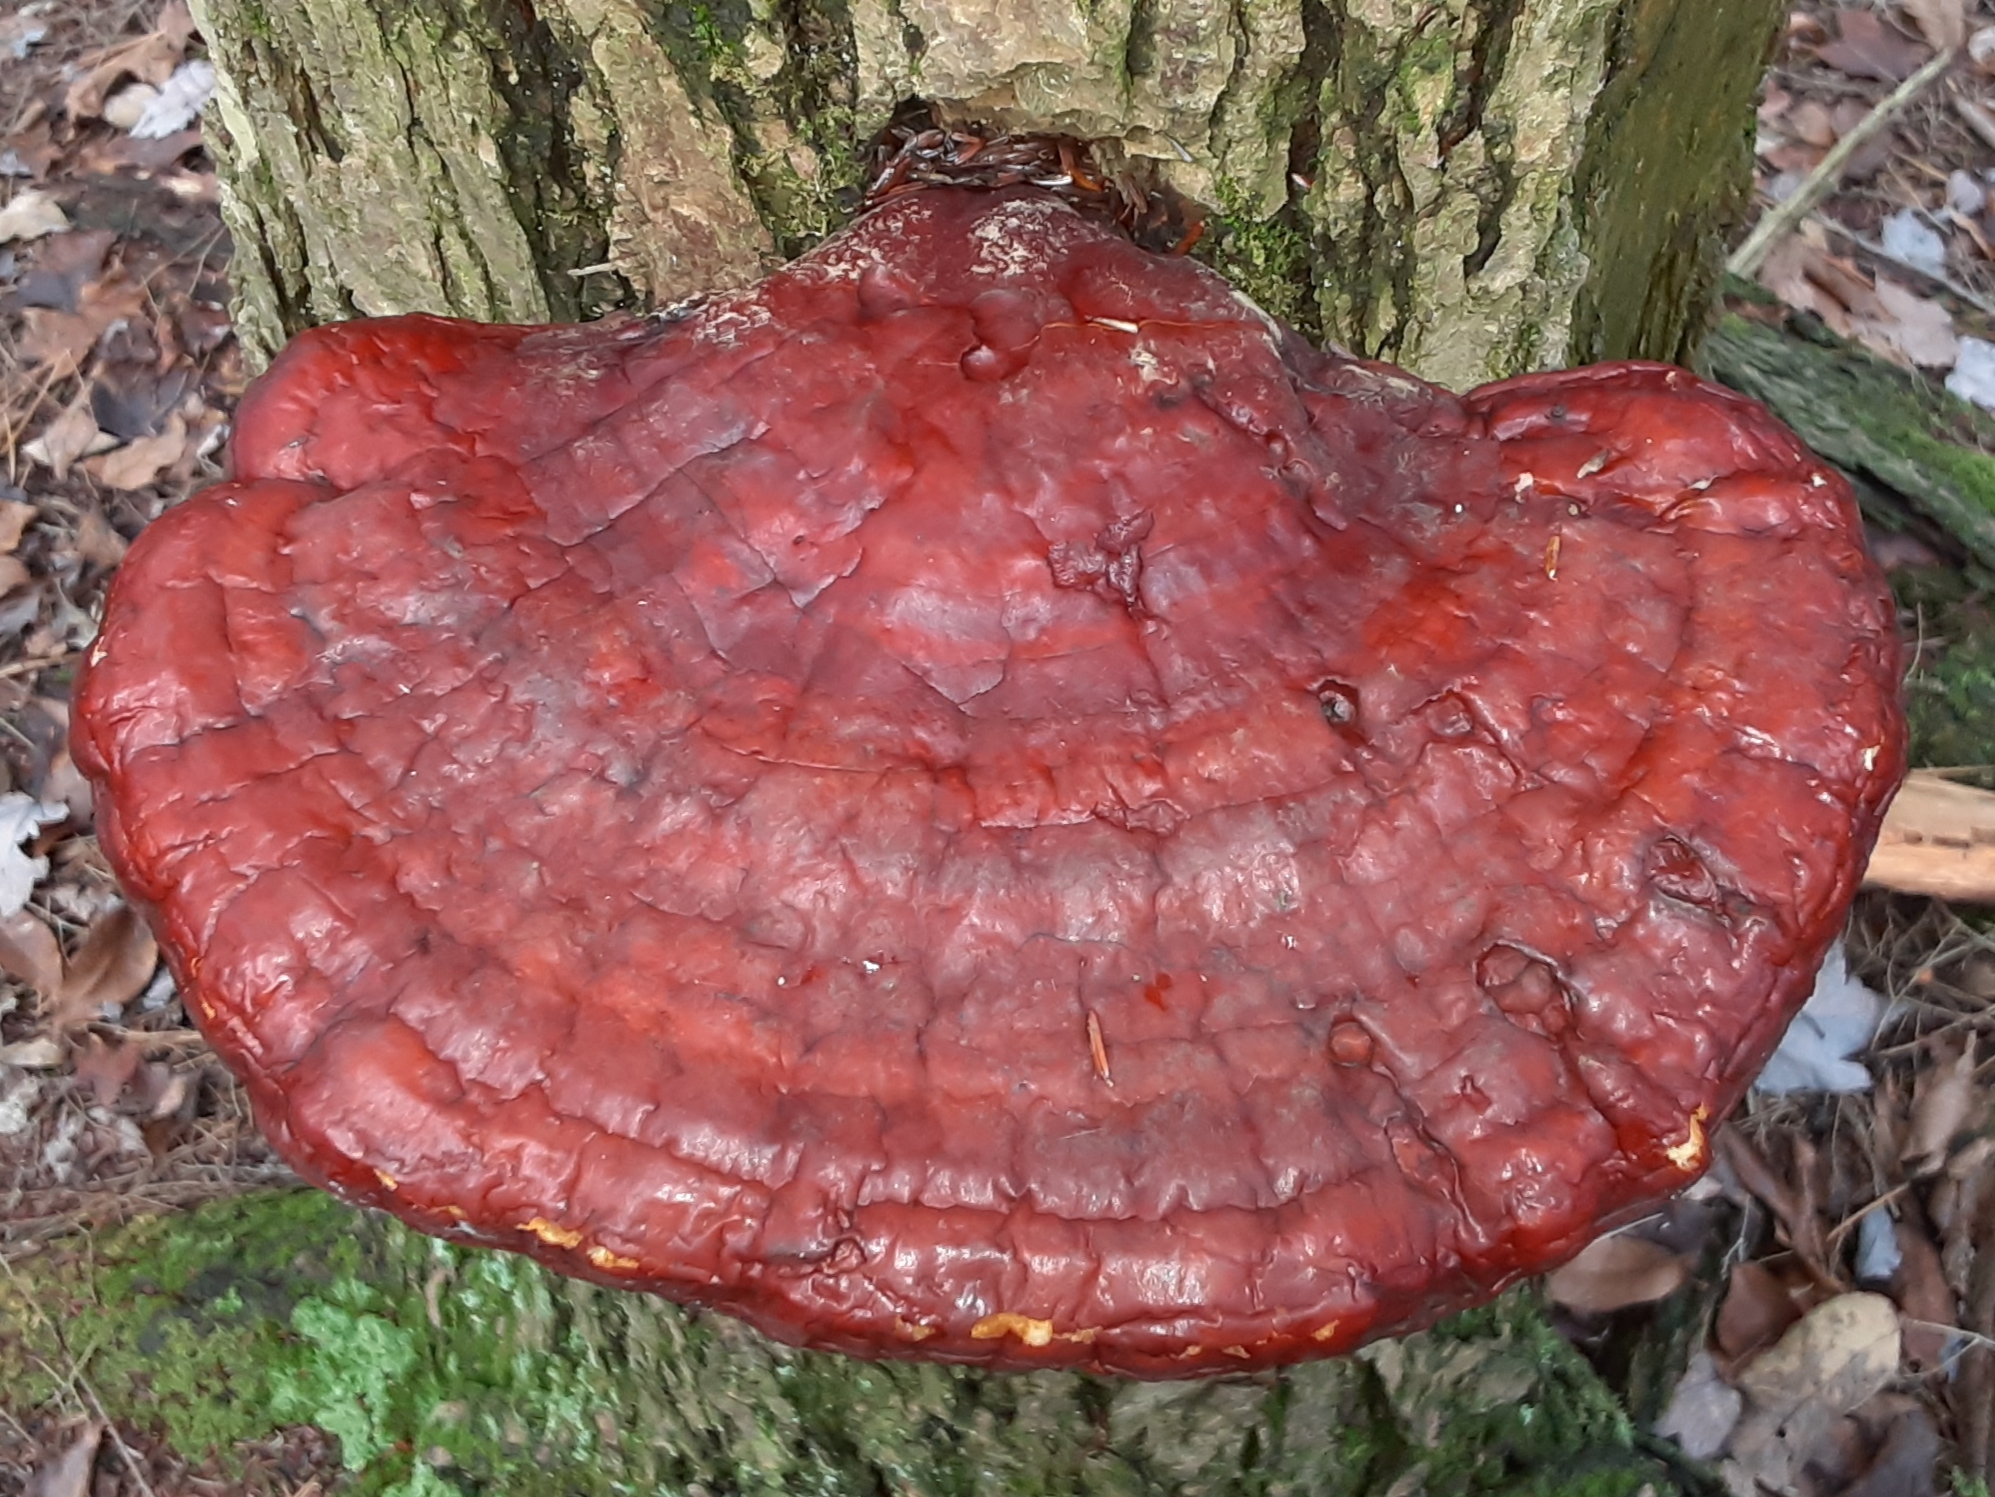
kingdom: Fungi
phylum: Basidiomycota
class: Agaricomycetes
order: Polyporales
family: Polyporaceae
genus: Ganoderma
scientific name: Ganoderma tsugae
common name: Hemlock varnish shelf
